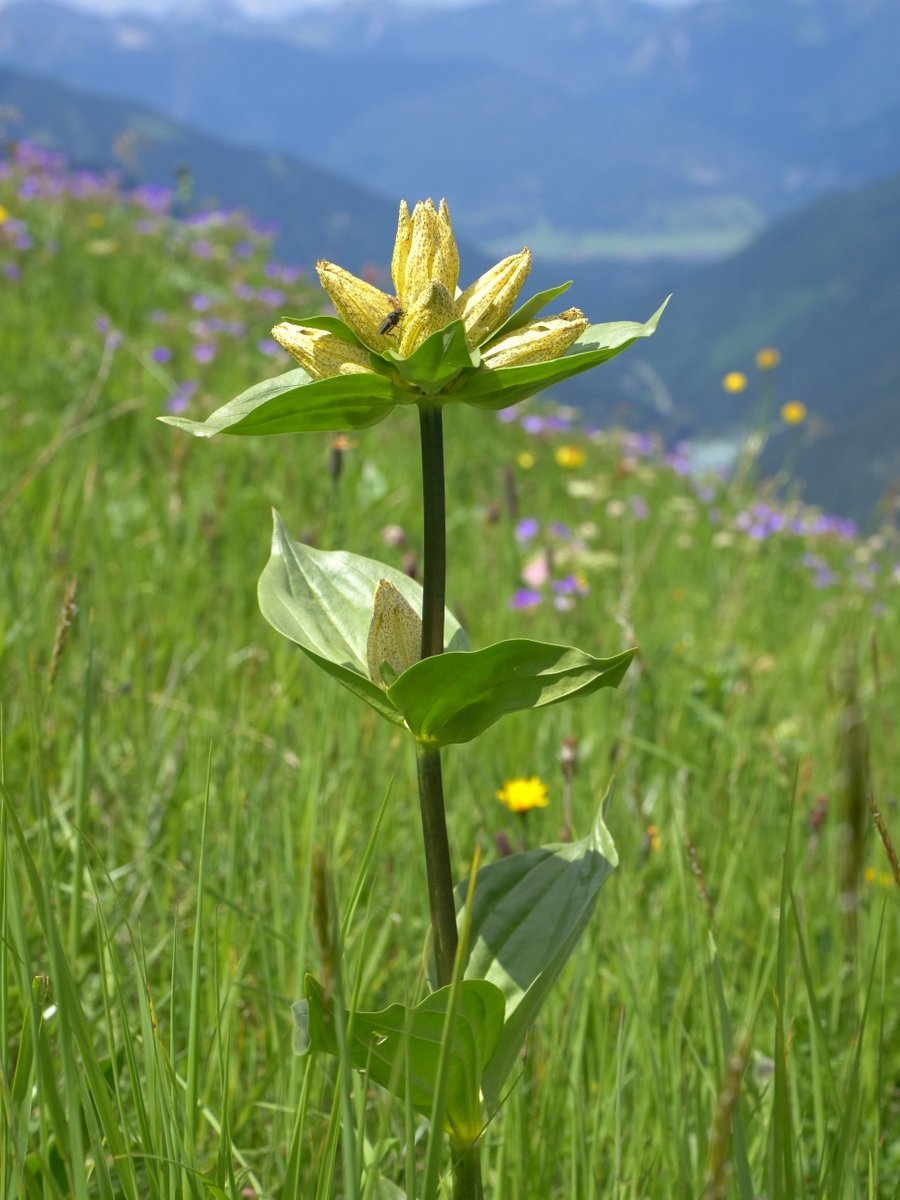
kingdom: Plantae
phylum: Tracheophyta
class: Magnoliopsida
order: Gentianales
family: Gentianaceae
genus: Gentiana
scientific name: Gentiana punctata
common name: Spotted gentian
